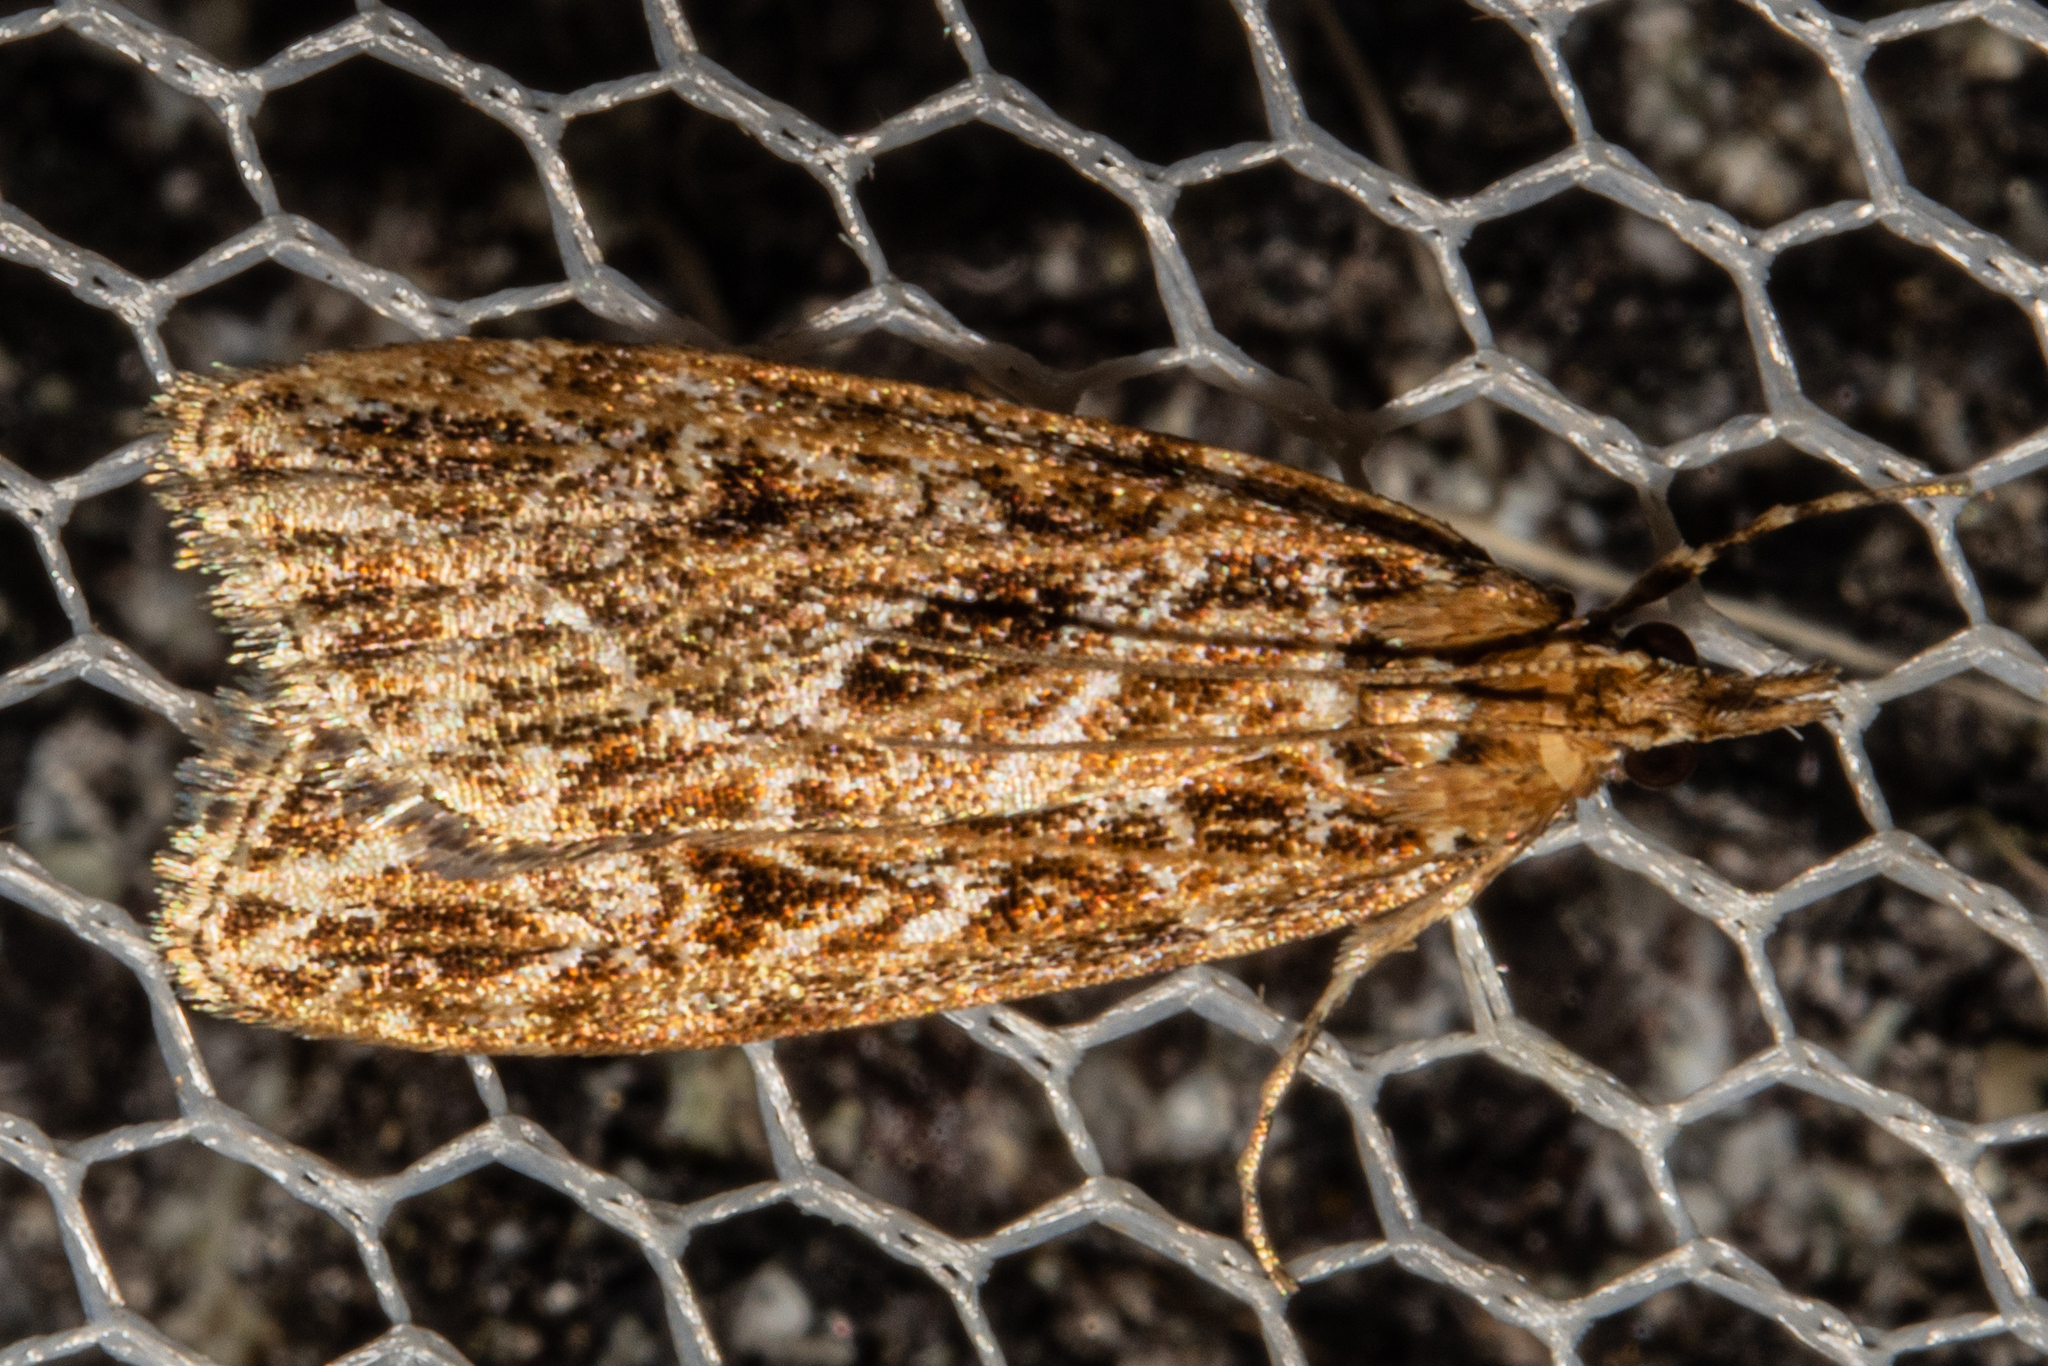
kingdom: Animalia
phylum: Arthropoda
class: Insecta
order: Lepidoptera
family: Crambidae
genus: Scoparia
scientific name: Scoparia triscelis
